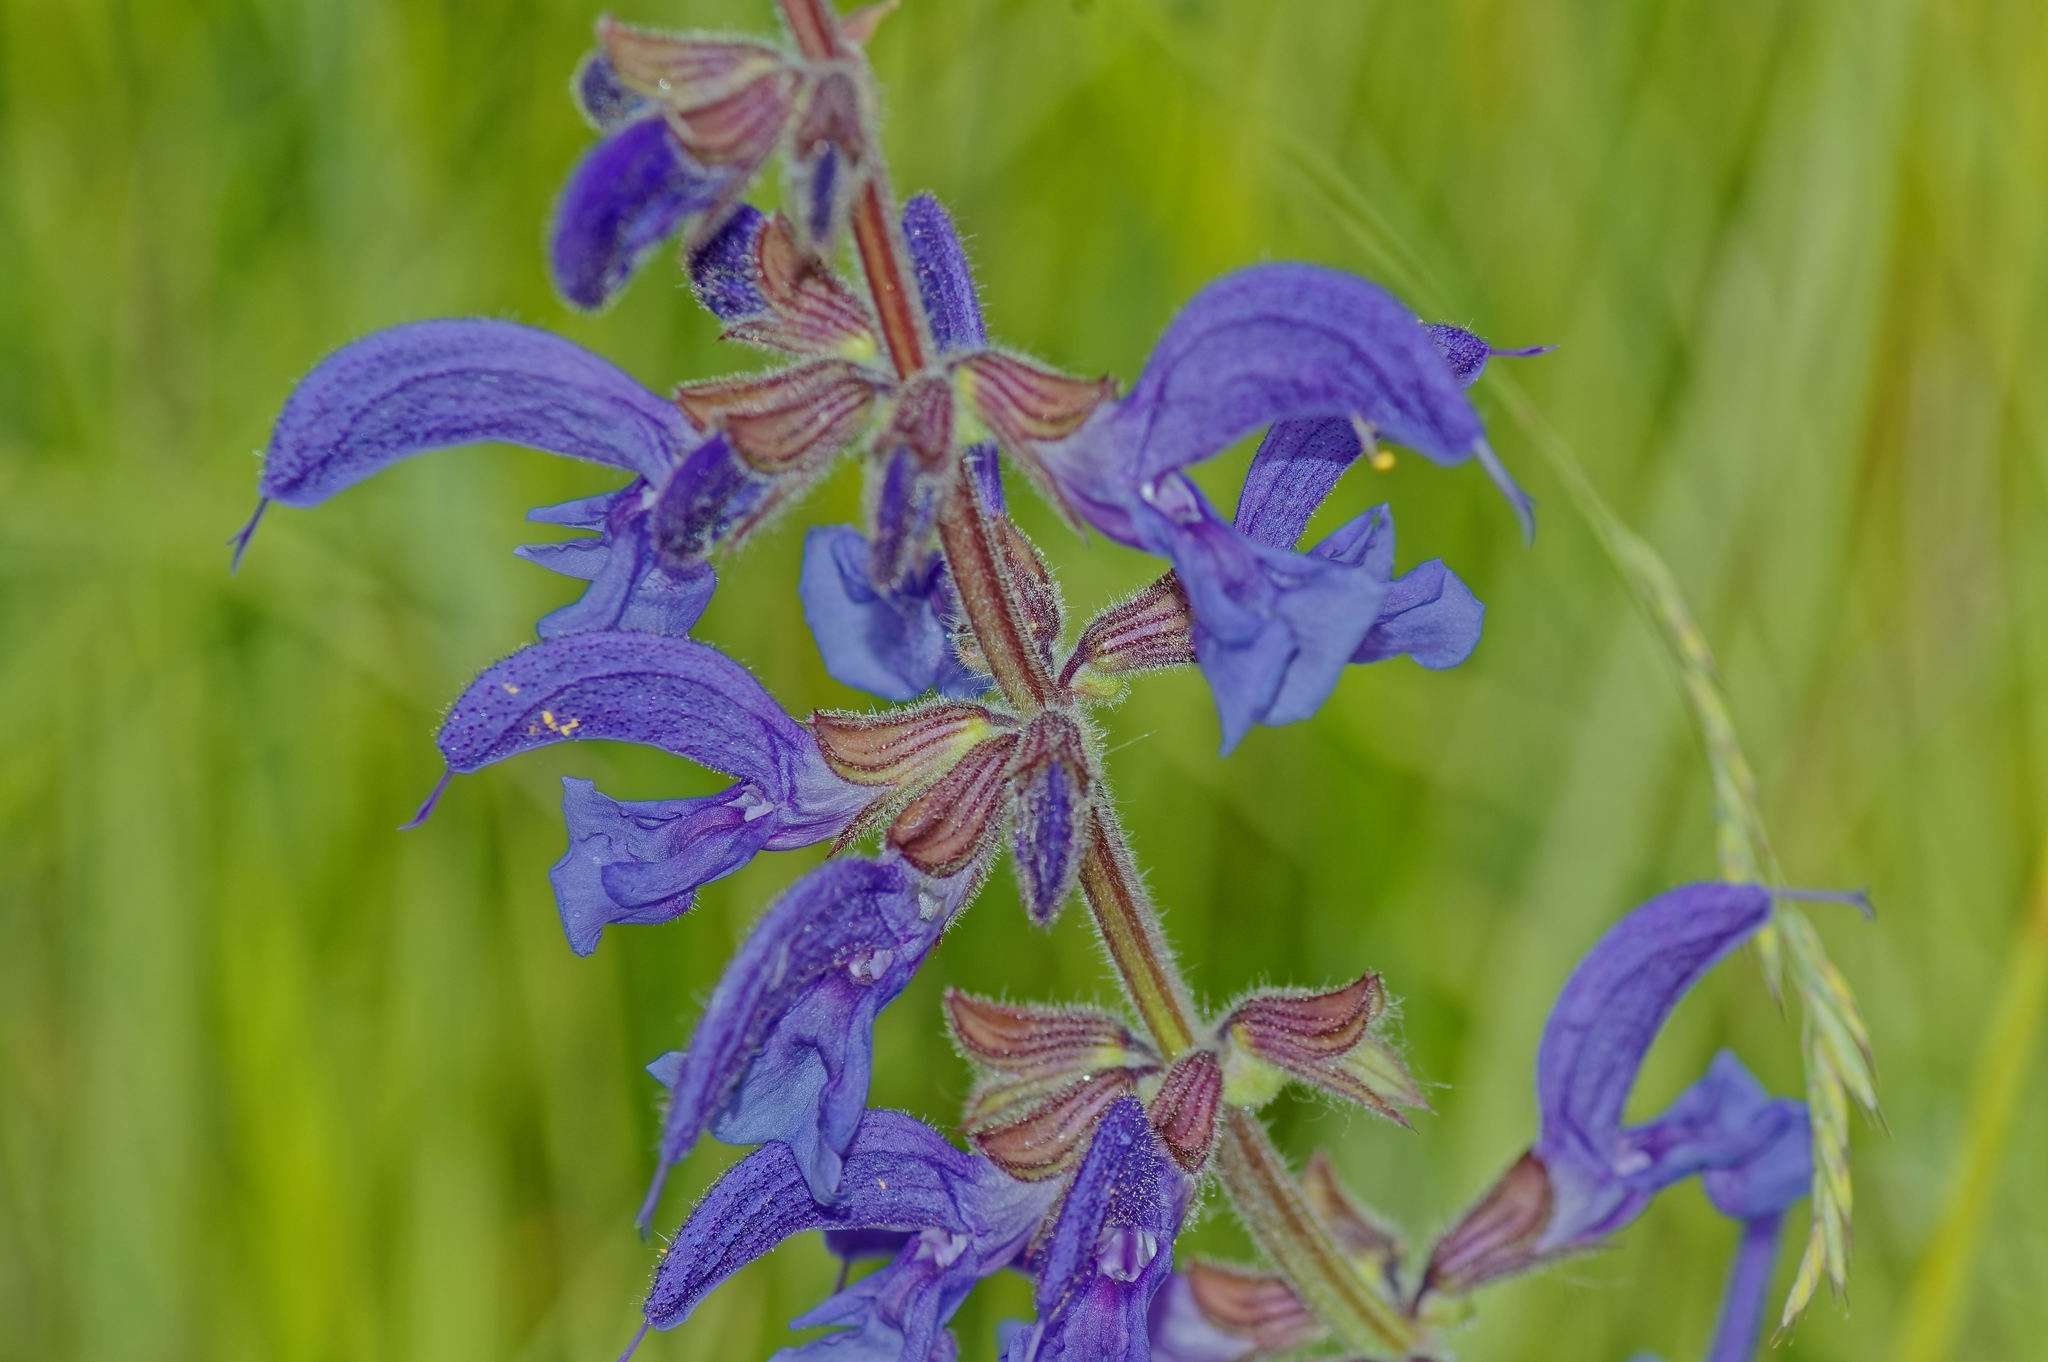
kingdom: Plantae
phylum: Tracheophyta
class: Magnoliopsida
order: Lamiales
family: Lamiaceae
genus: Salvia
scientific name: Salvia pratensis
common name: Meadow sage
